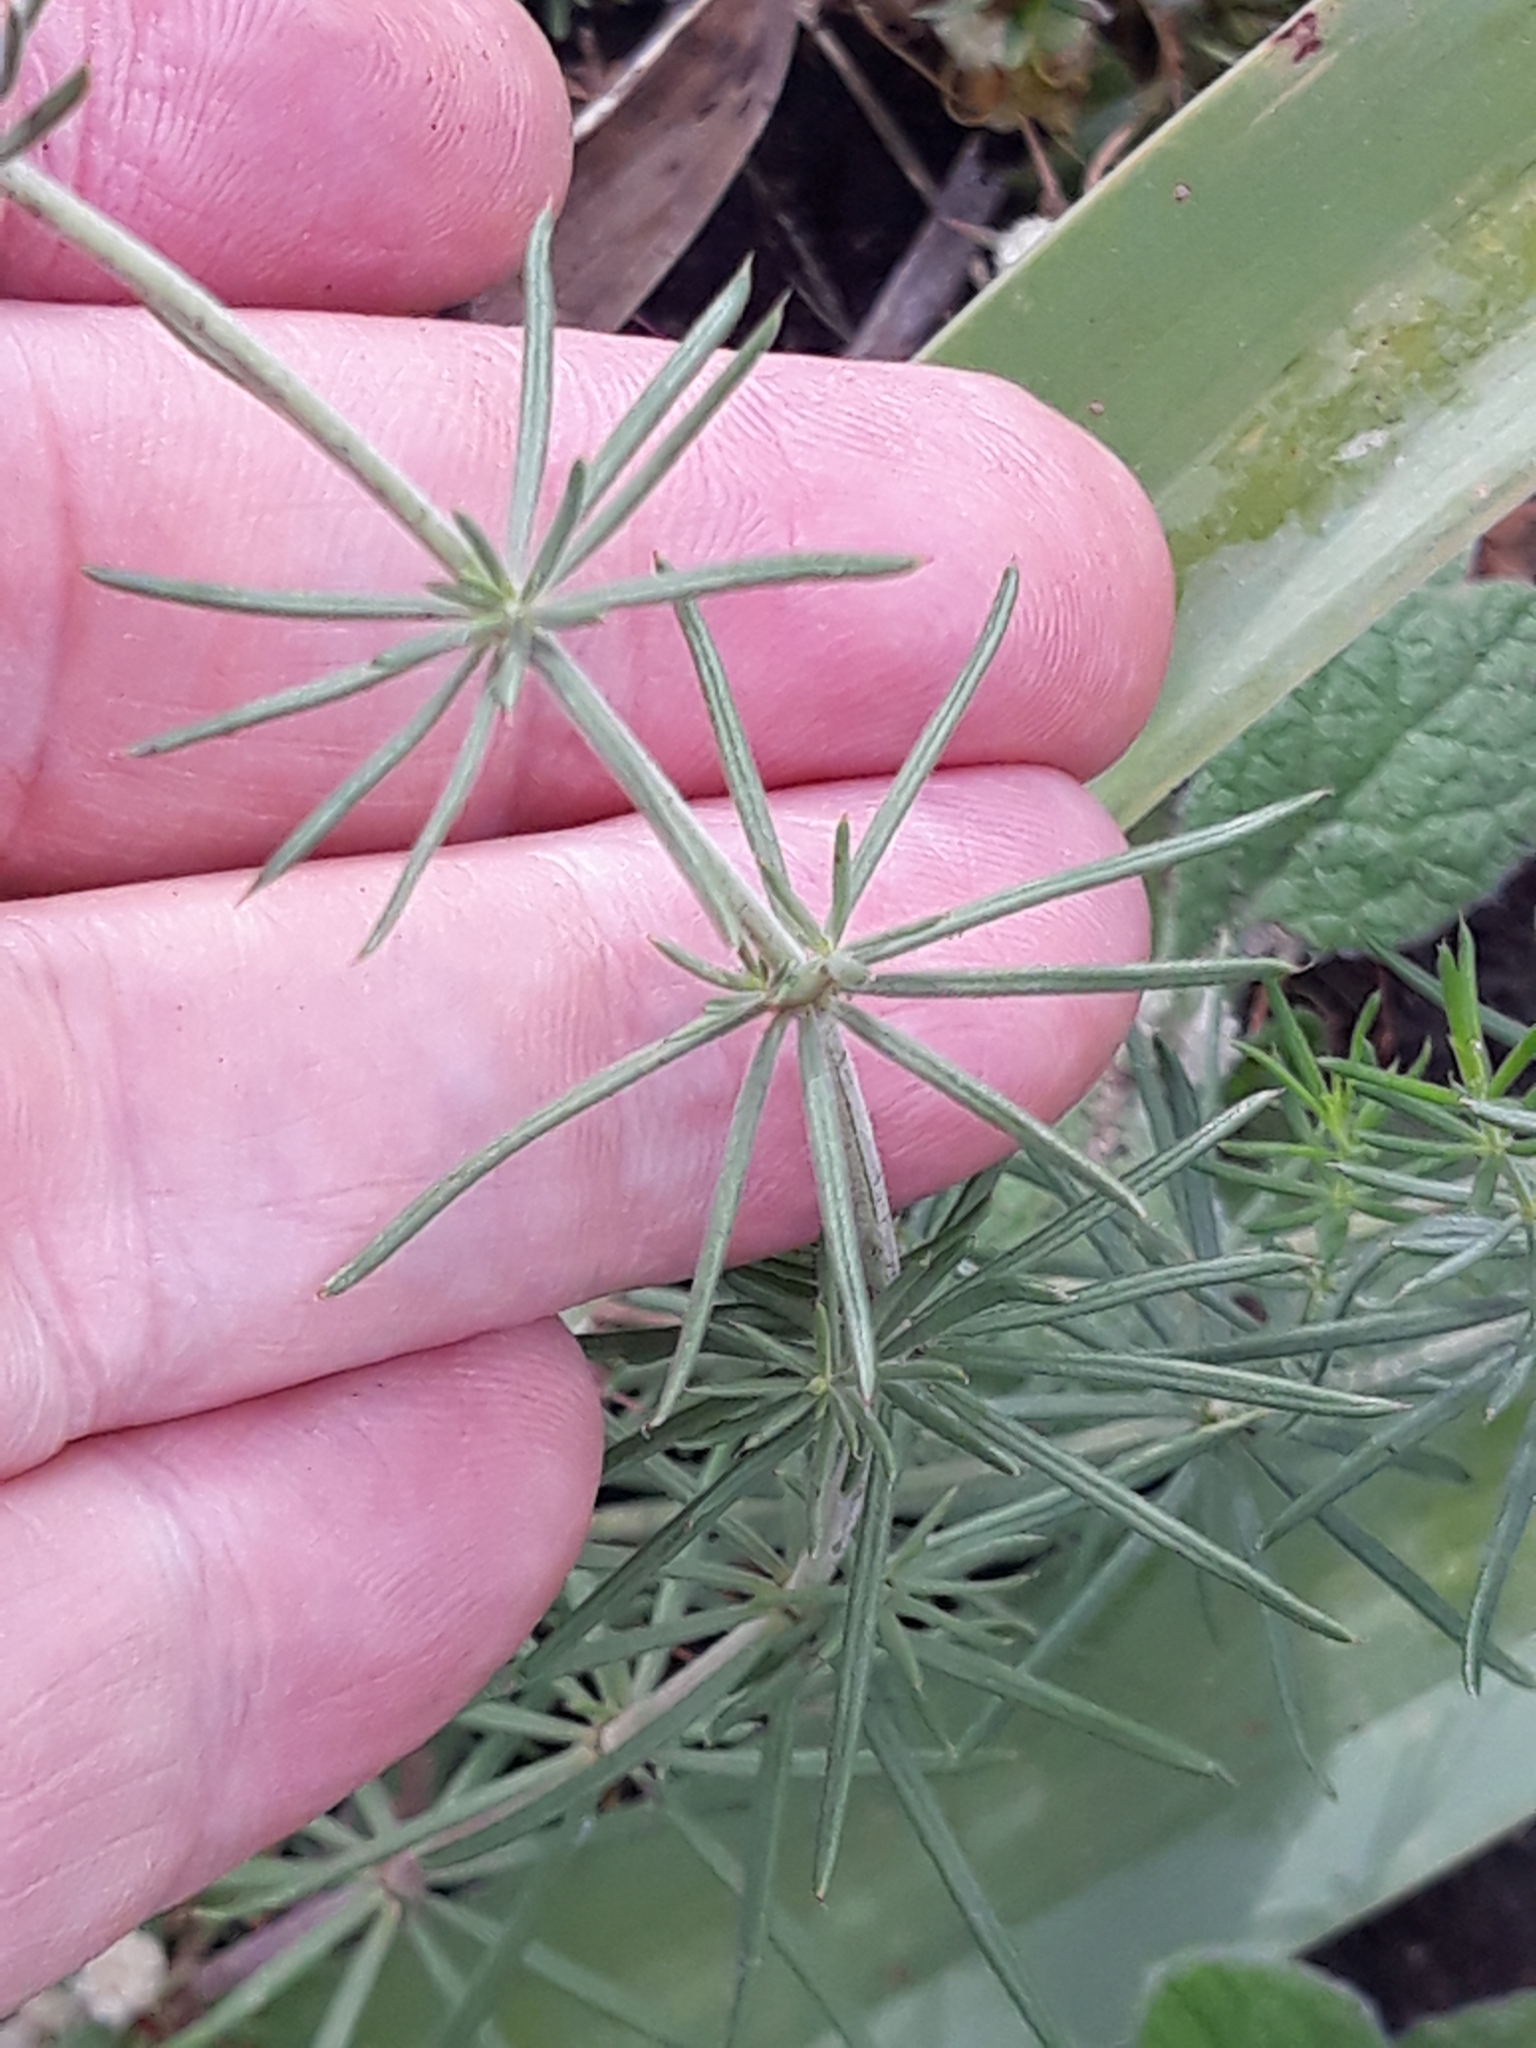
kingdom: Plantae
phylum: Tracheophyta
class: Magnoliopsida
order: Gentianales
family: Rubiaceae
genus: Galium
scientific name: Galium tunetanum
